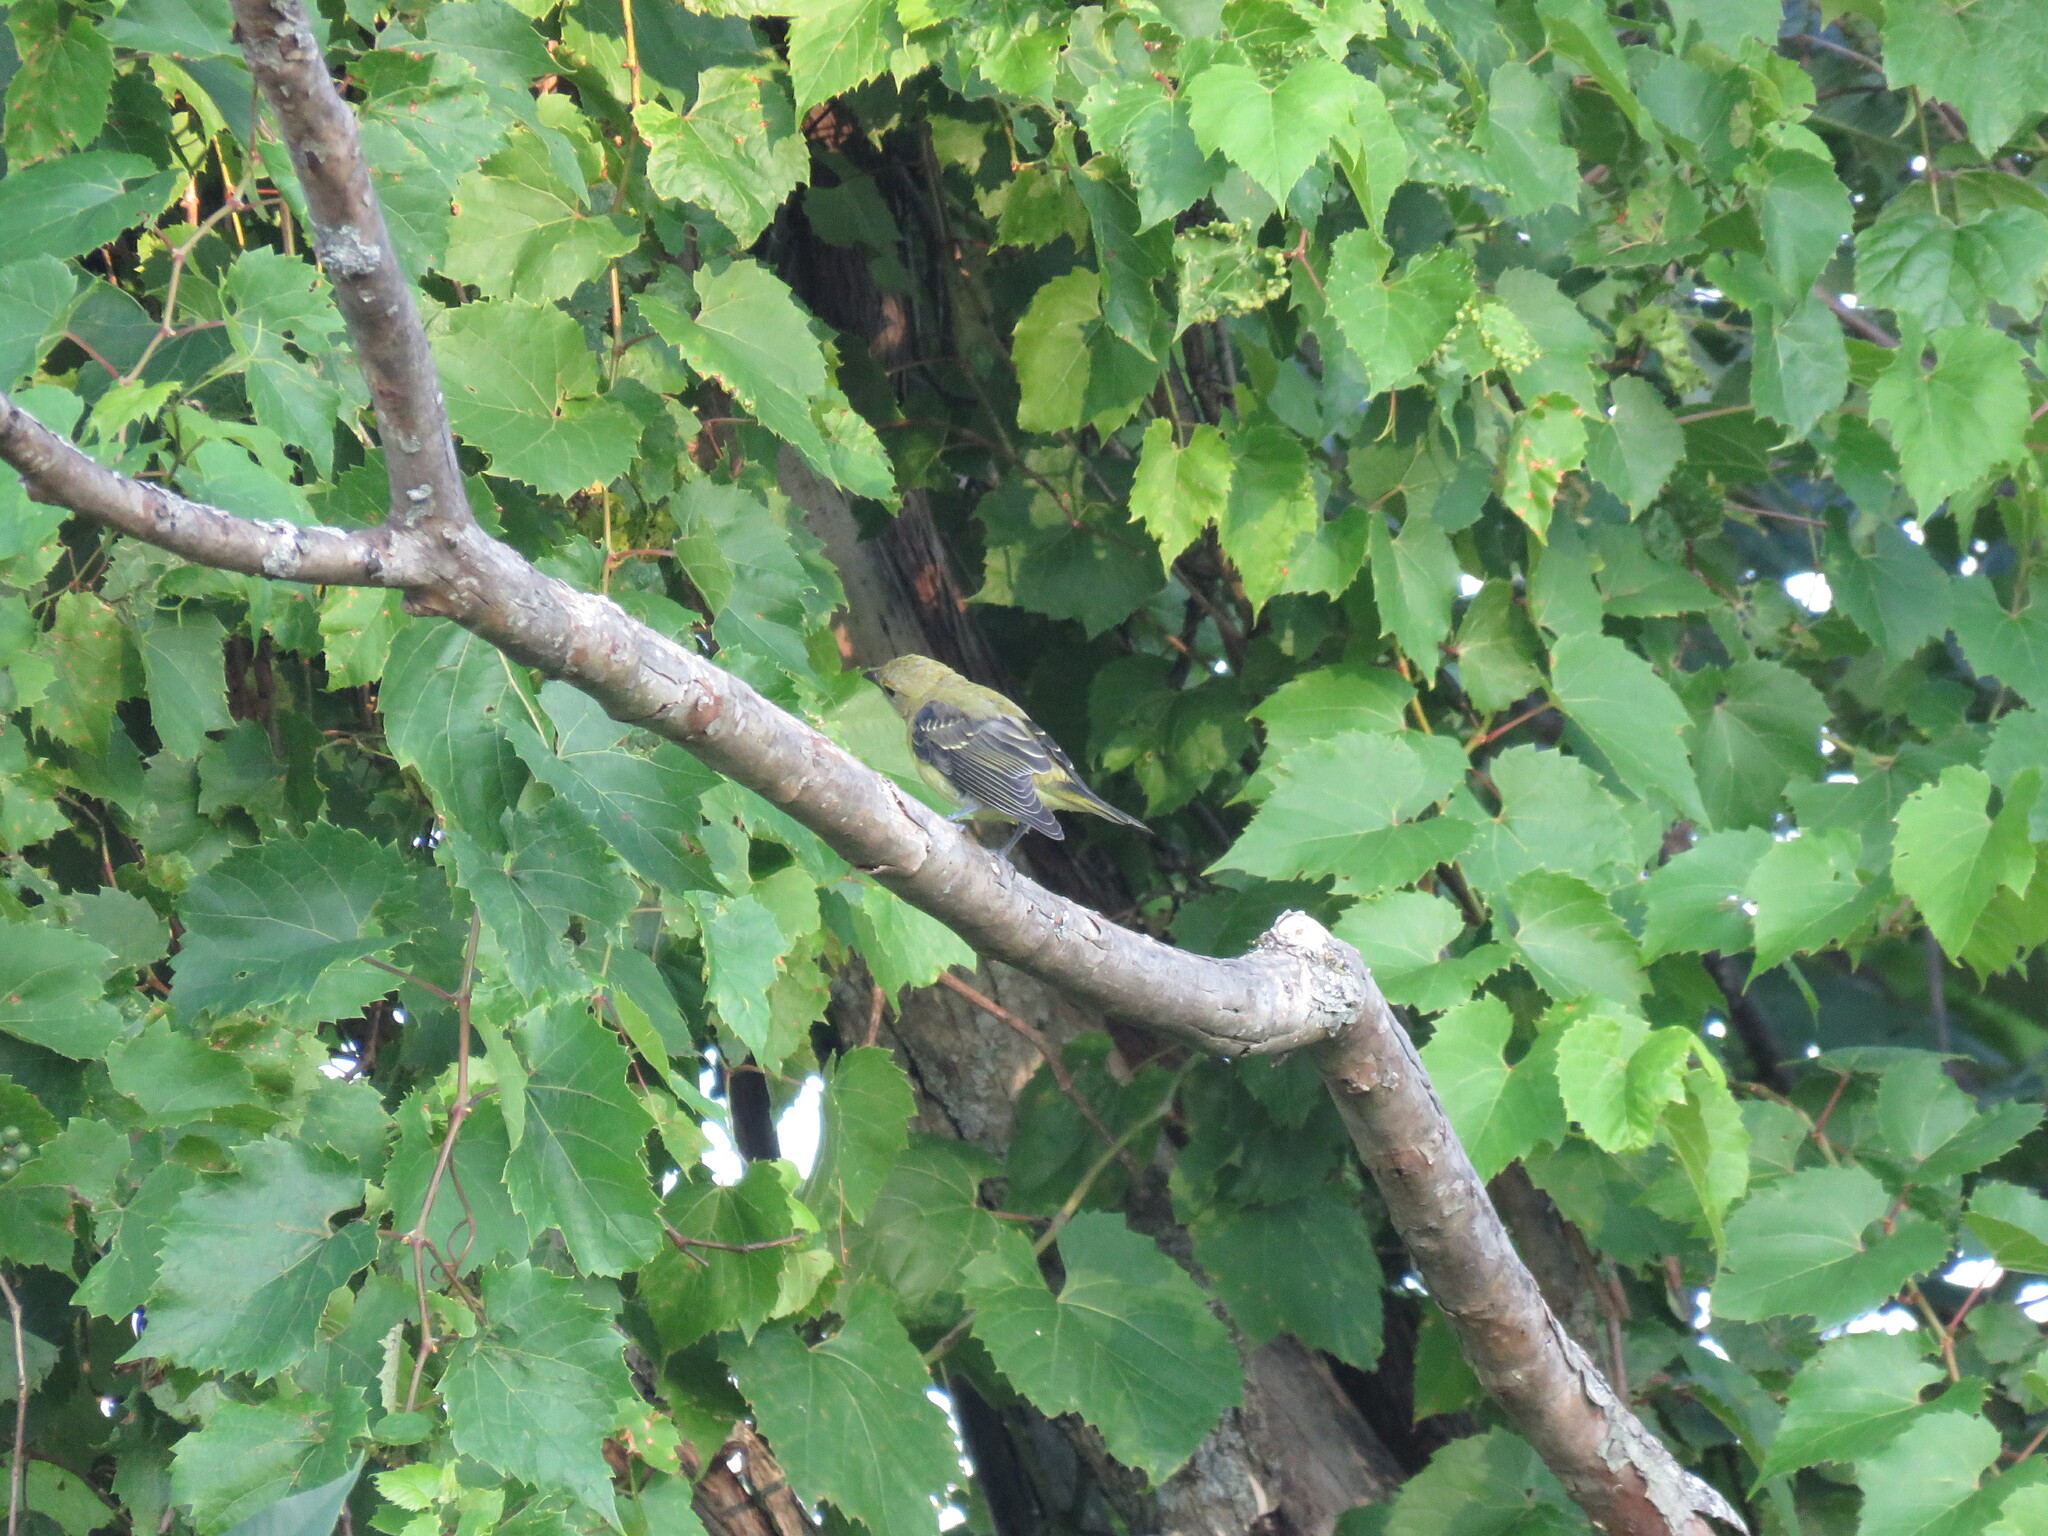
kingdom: Animalia
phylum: Chordata
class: Aves
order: Passeriformes
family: Cardinalidae
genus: Piranga
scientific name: Piranga olivacea
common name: Scarlet tanager
